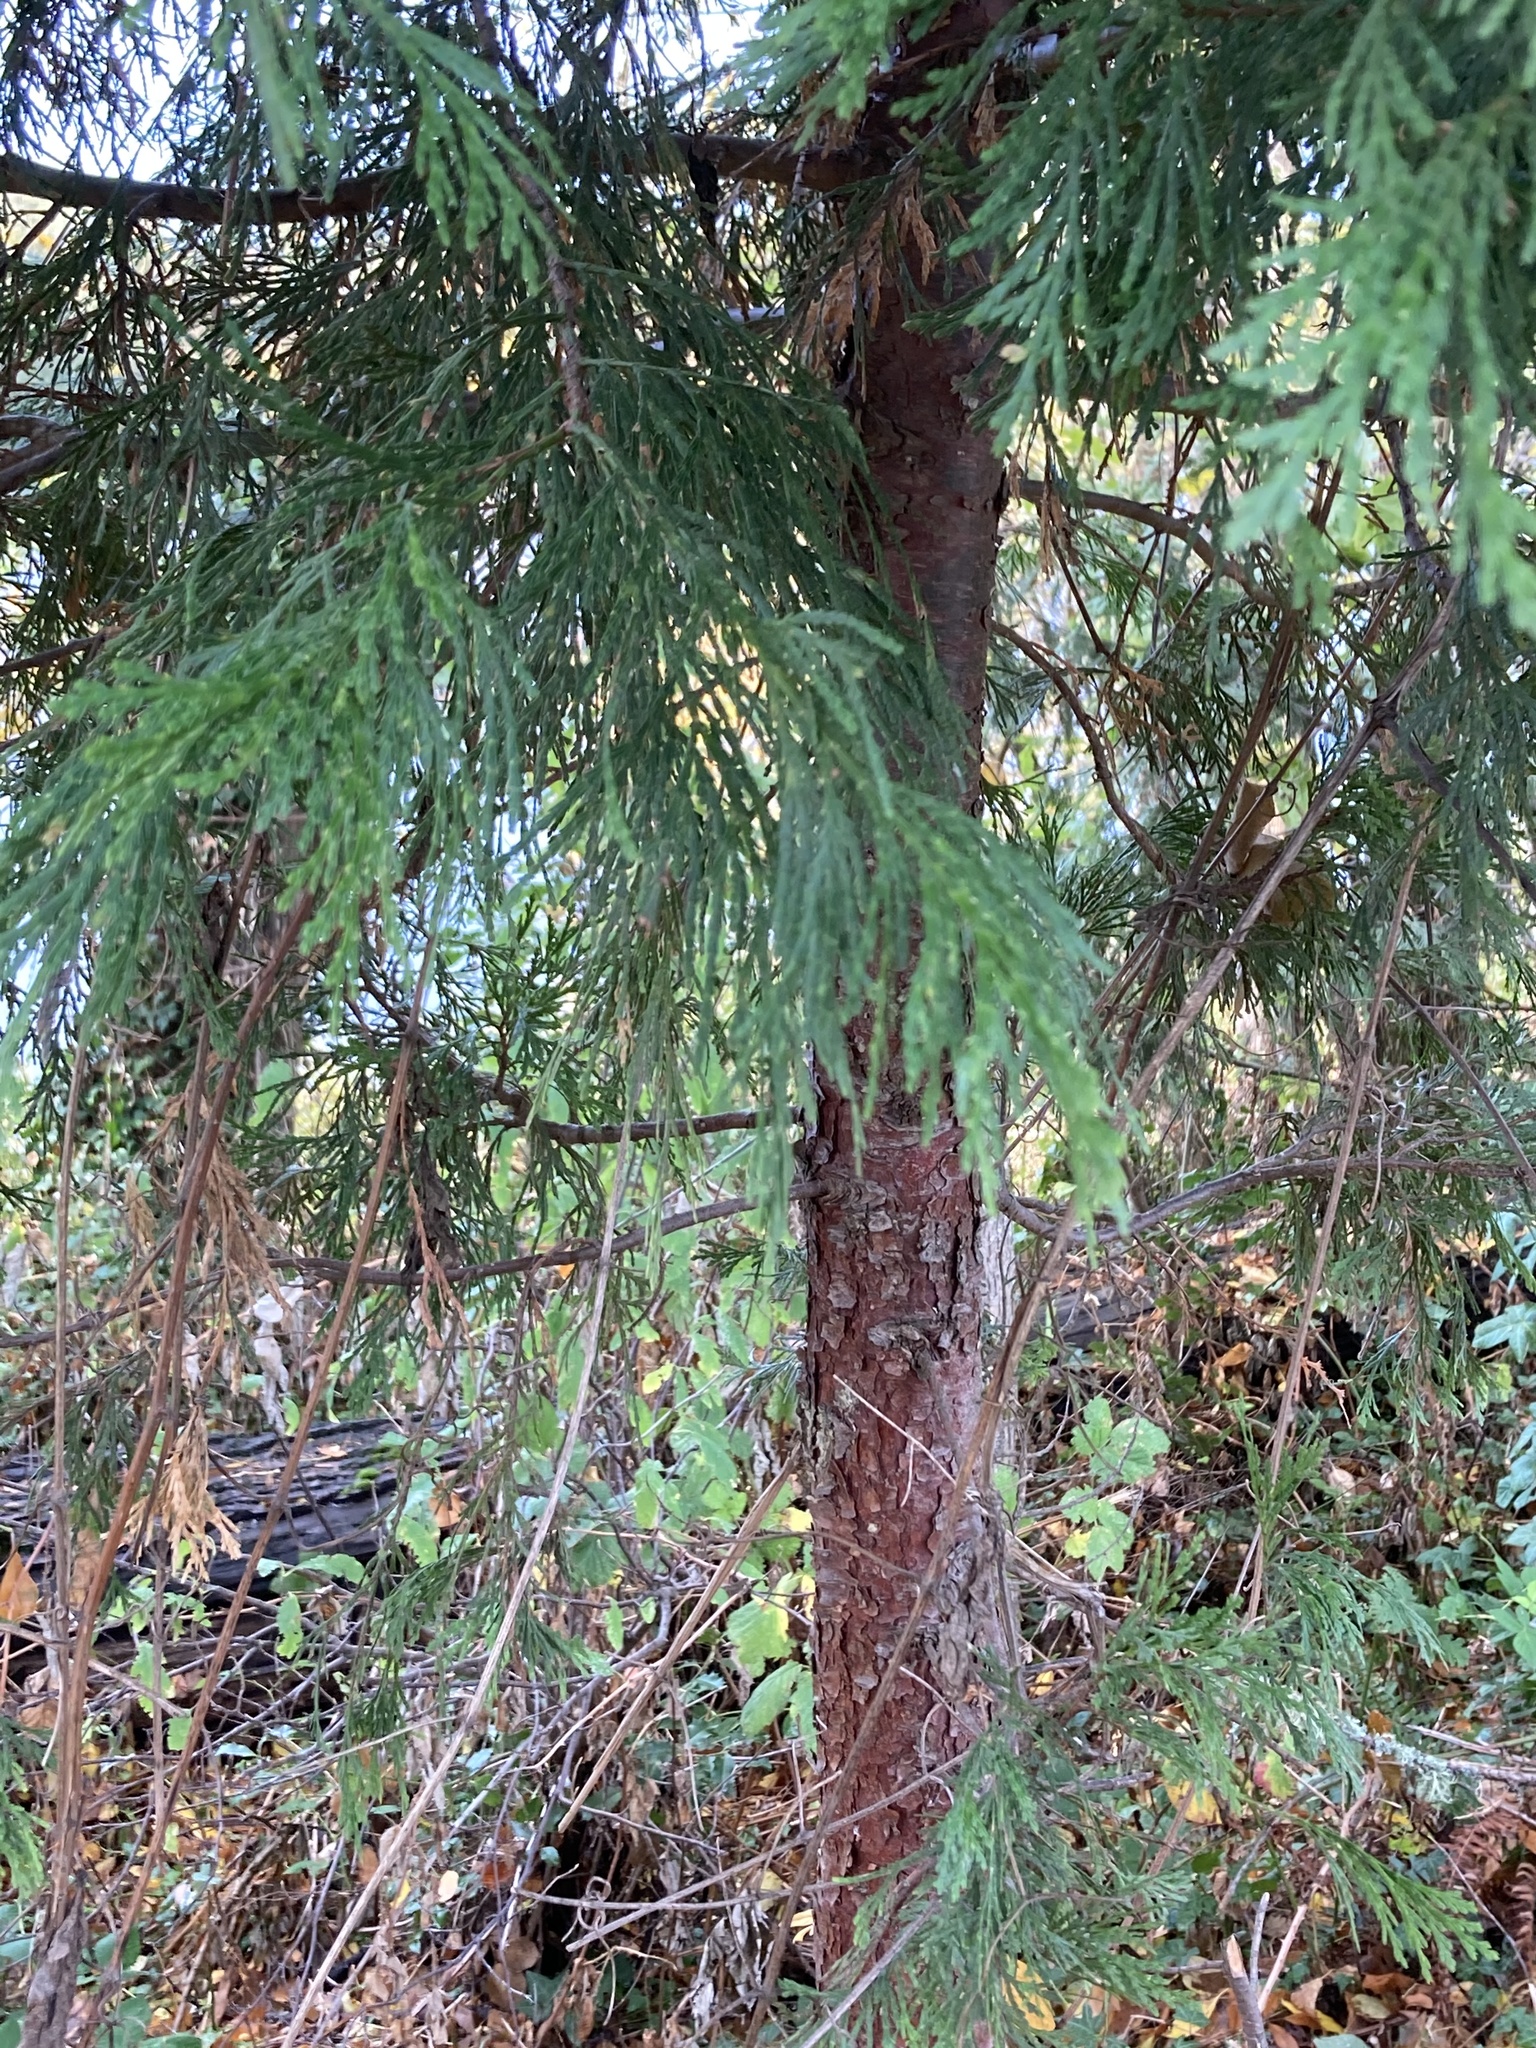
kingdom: Plantae
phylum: Tracheophyta
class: Pinopsida
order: Pinales
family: Cupressaceae
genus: Calocedrus
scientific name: Calocedrus decurrens
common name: Californian incense-cedar
